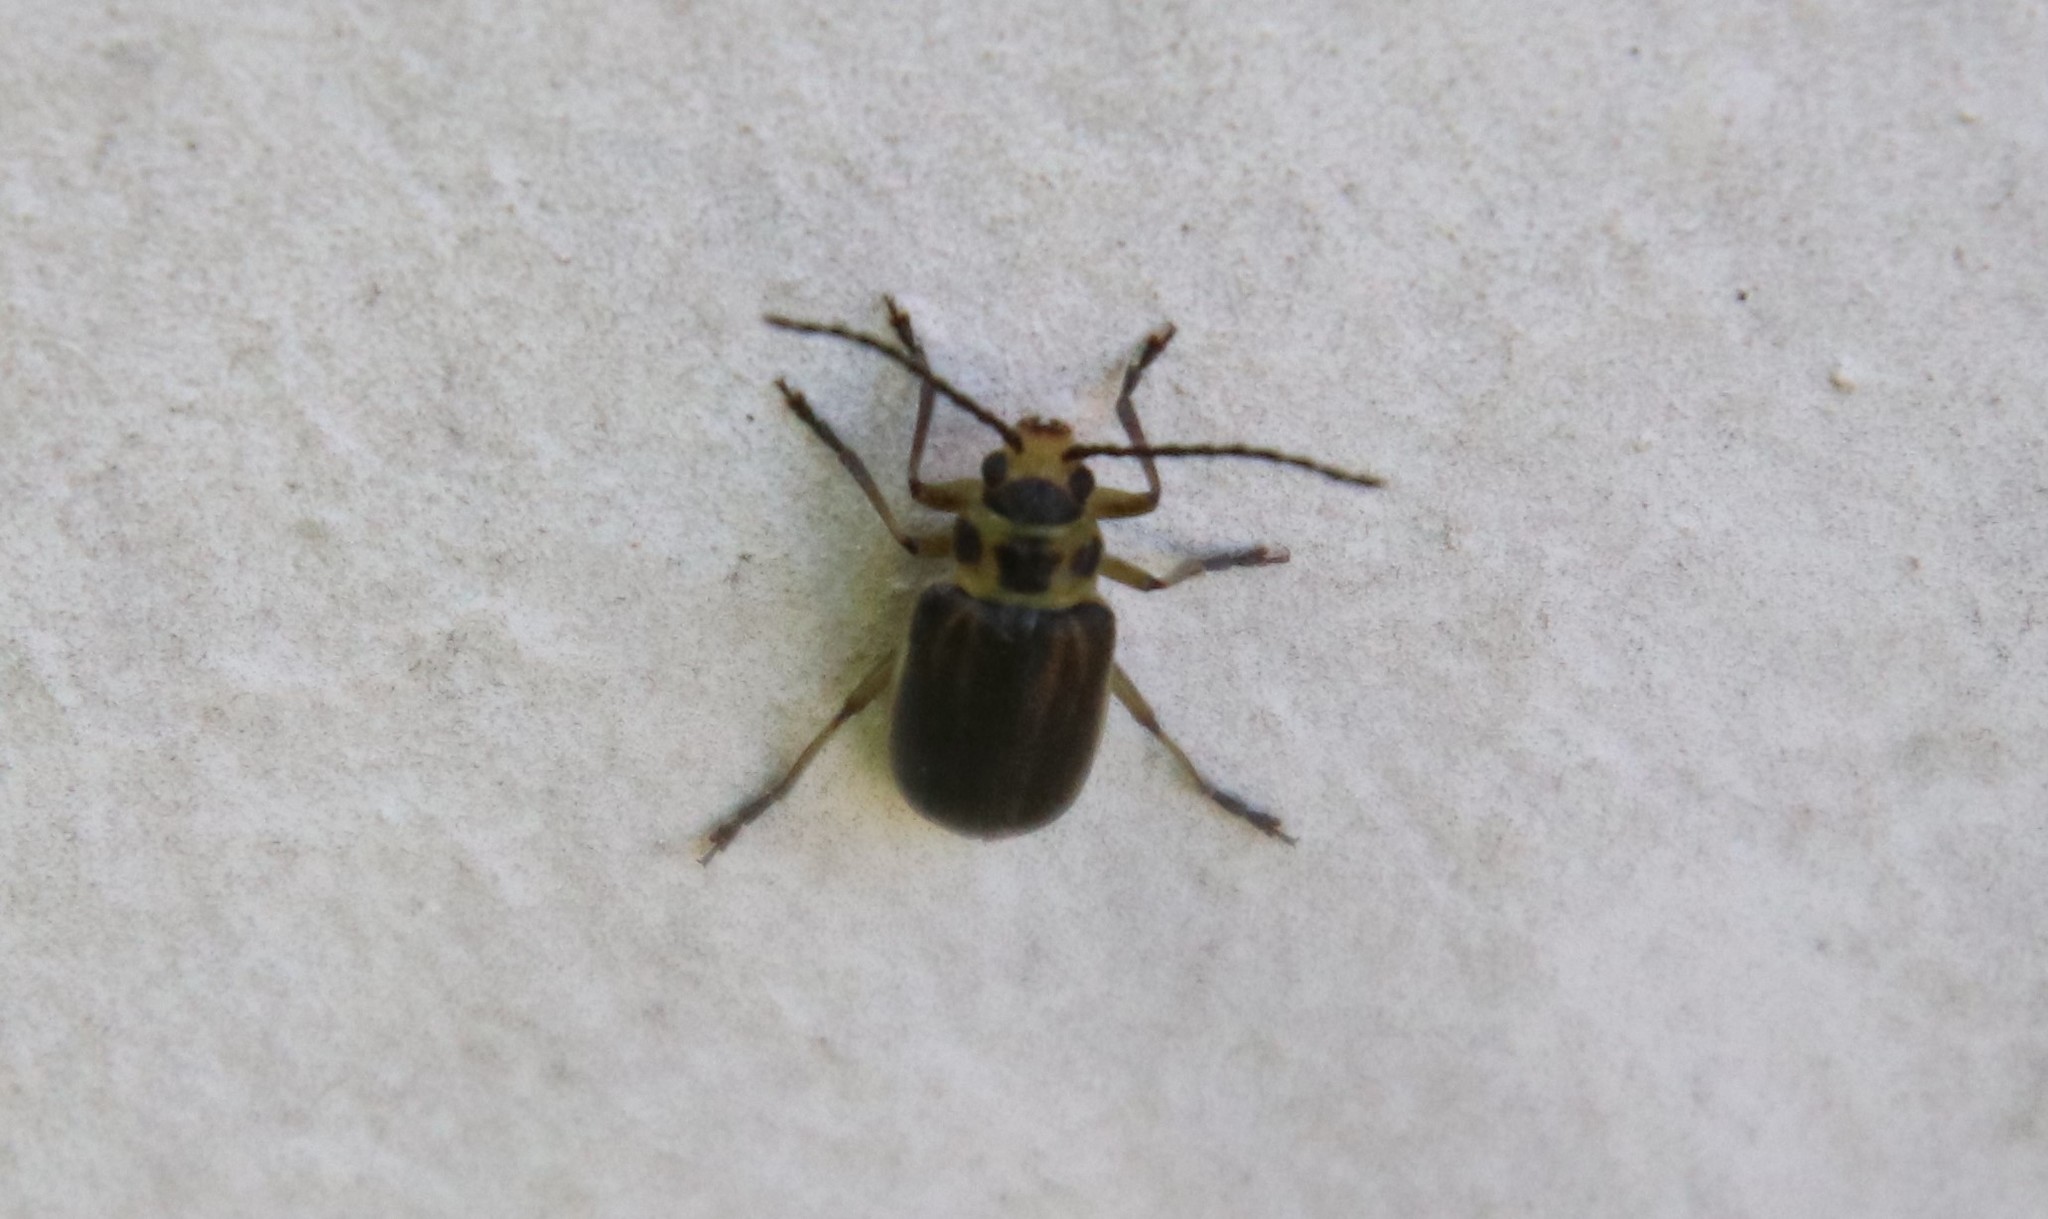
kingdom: Animalia
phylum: Arthropoda
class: Insecta
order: Coleoptera
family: Chrysomelidae
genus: Trirhabda
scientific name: Trirhabda geminata
